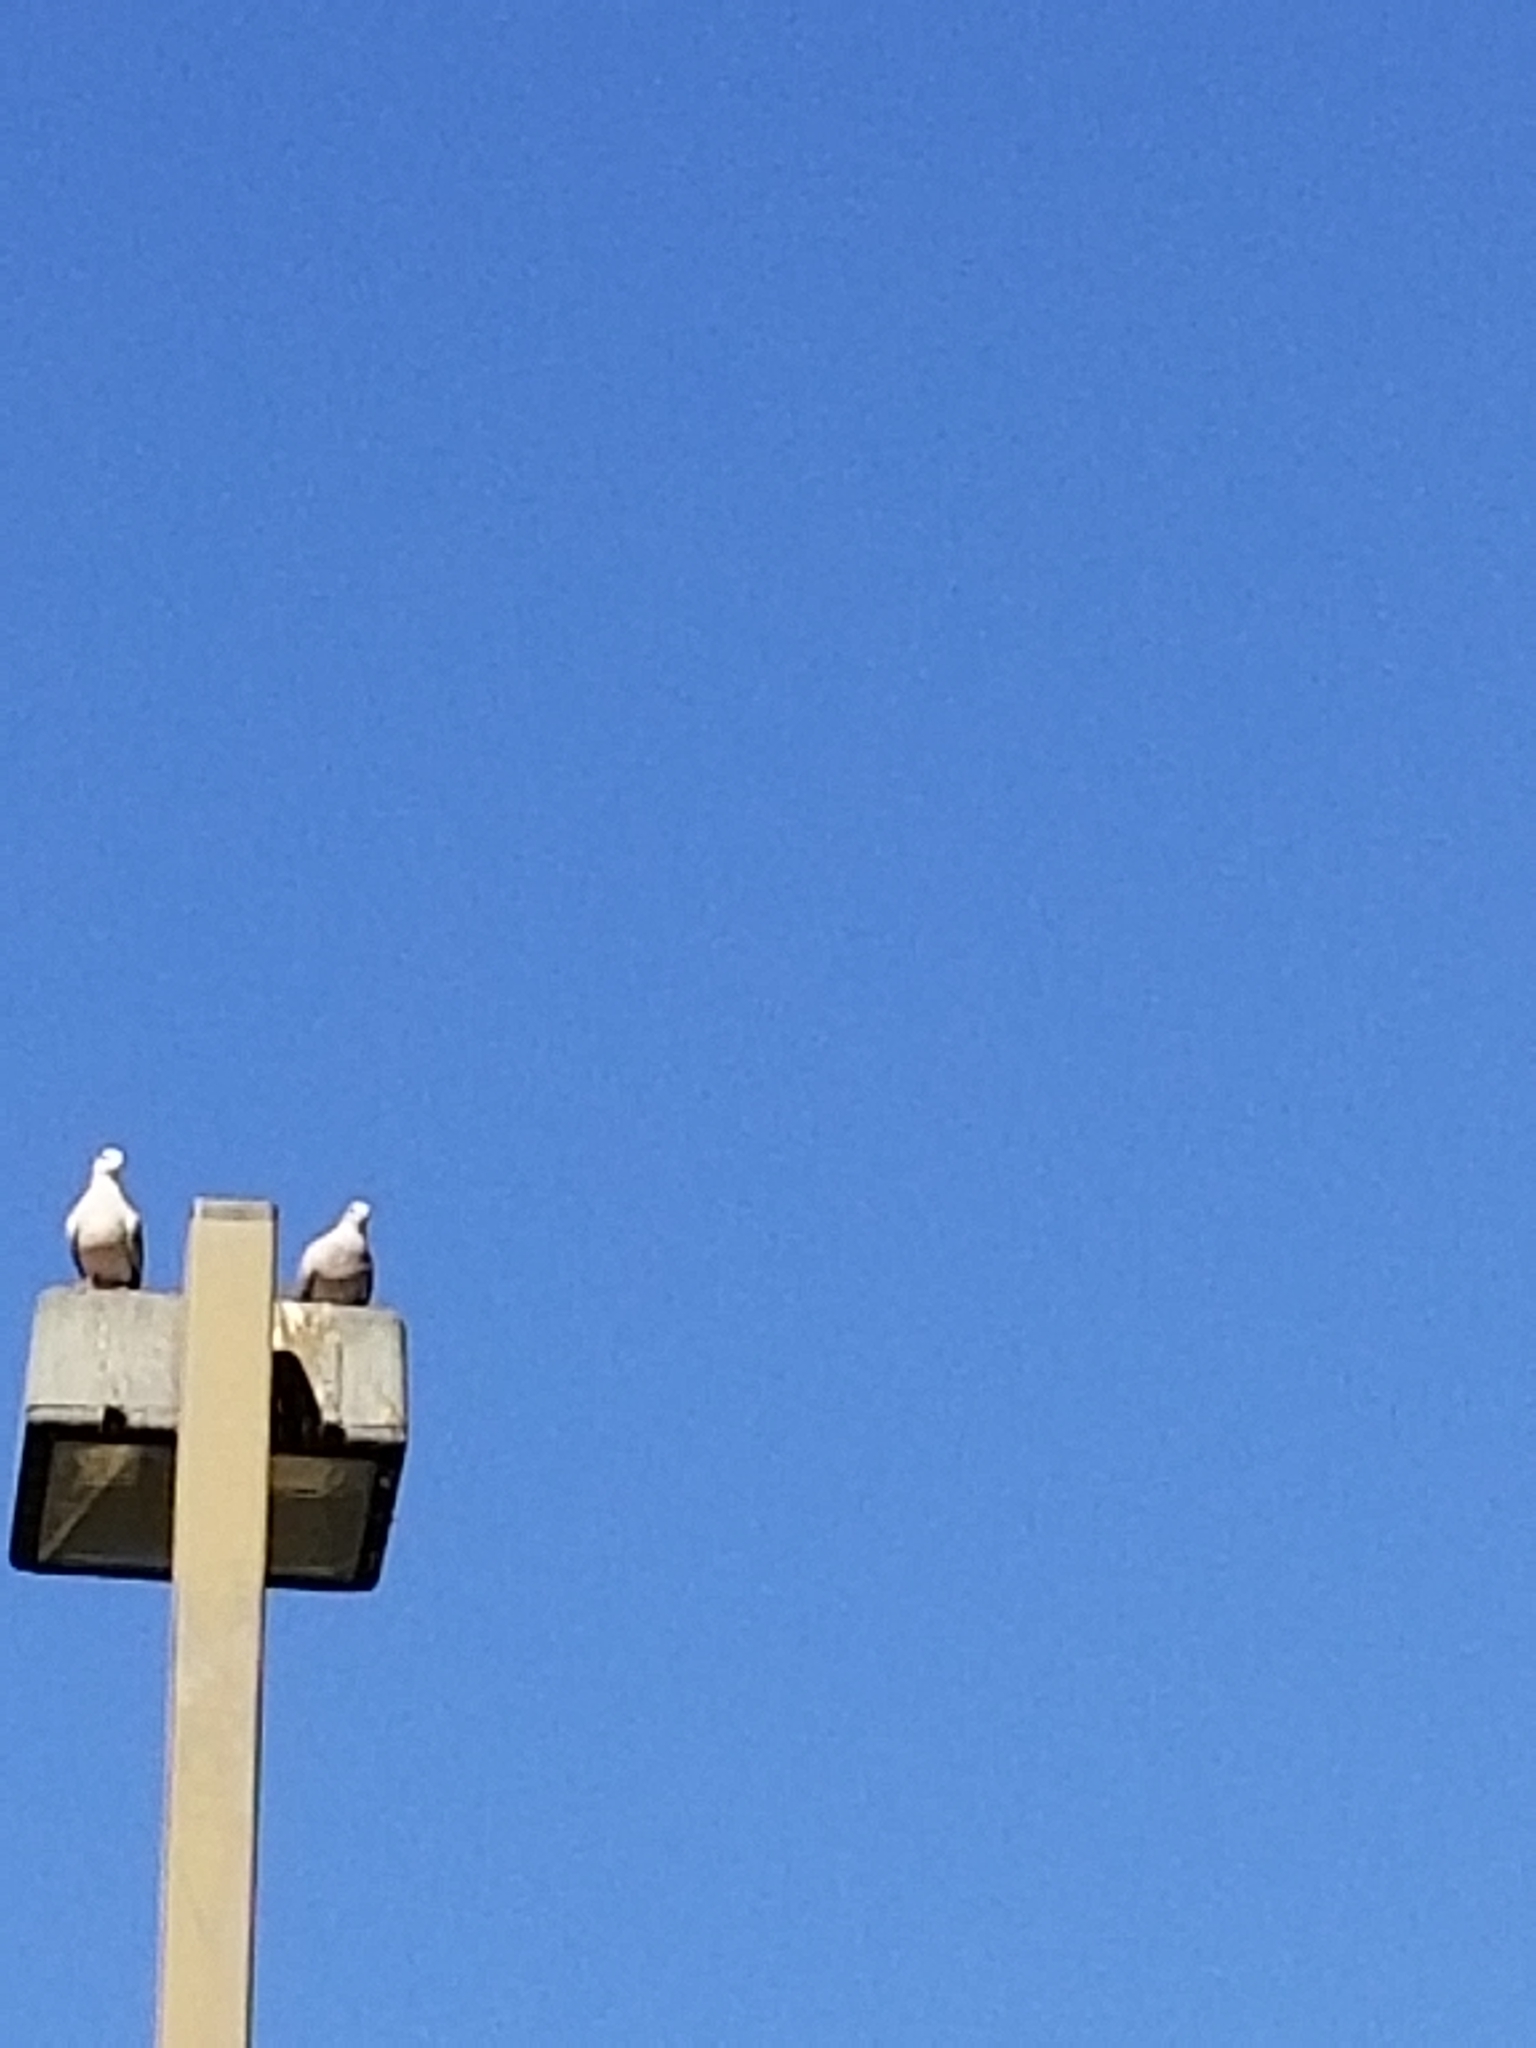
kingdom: Animalia
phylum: Chordata
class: Aves
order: Columbiformes
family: Columbidae
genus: Streptopelia
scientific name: Streptopelia decaocto
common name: Eurasian collared dove
